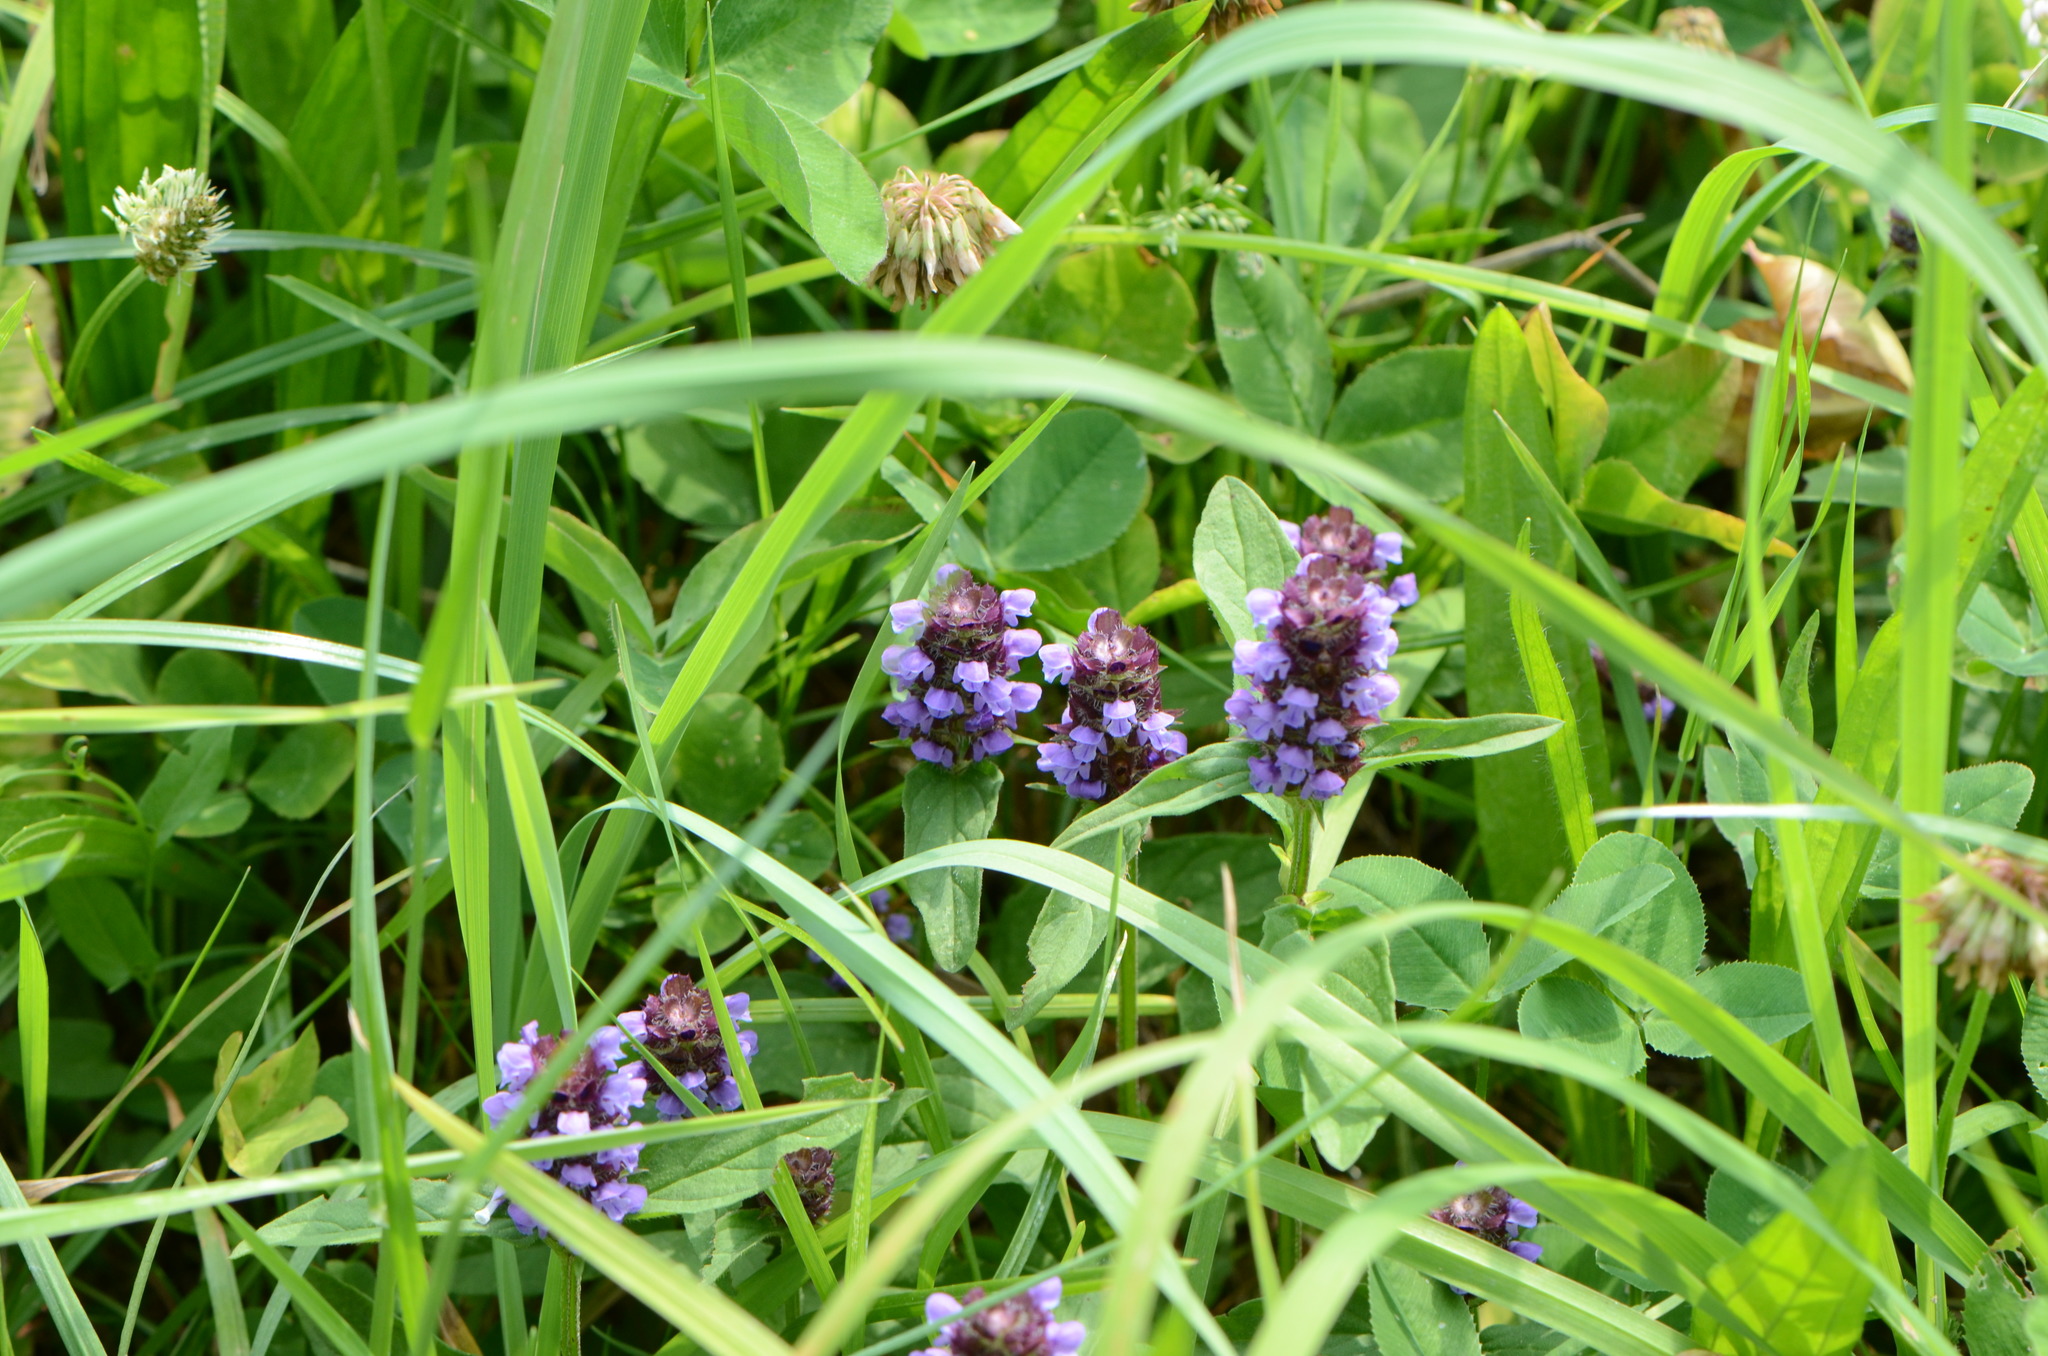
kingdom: Plantae
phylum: Tracheophyta
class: Magnoliopsida
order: Lamiales
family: Lamiaceae
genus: Prunella
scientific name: Prunella vulgaris
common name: Heal-all
